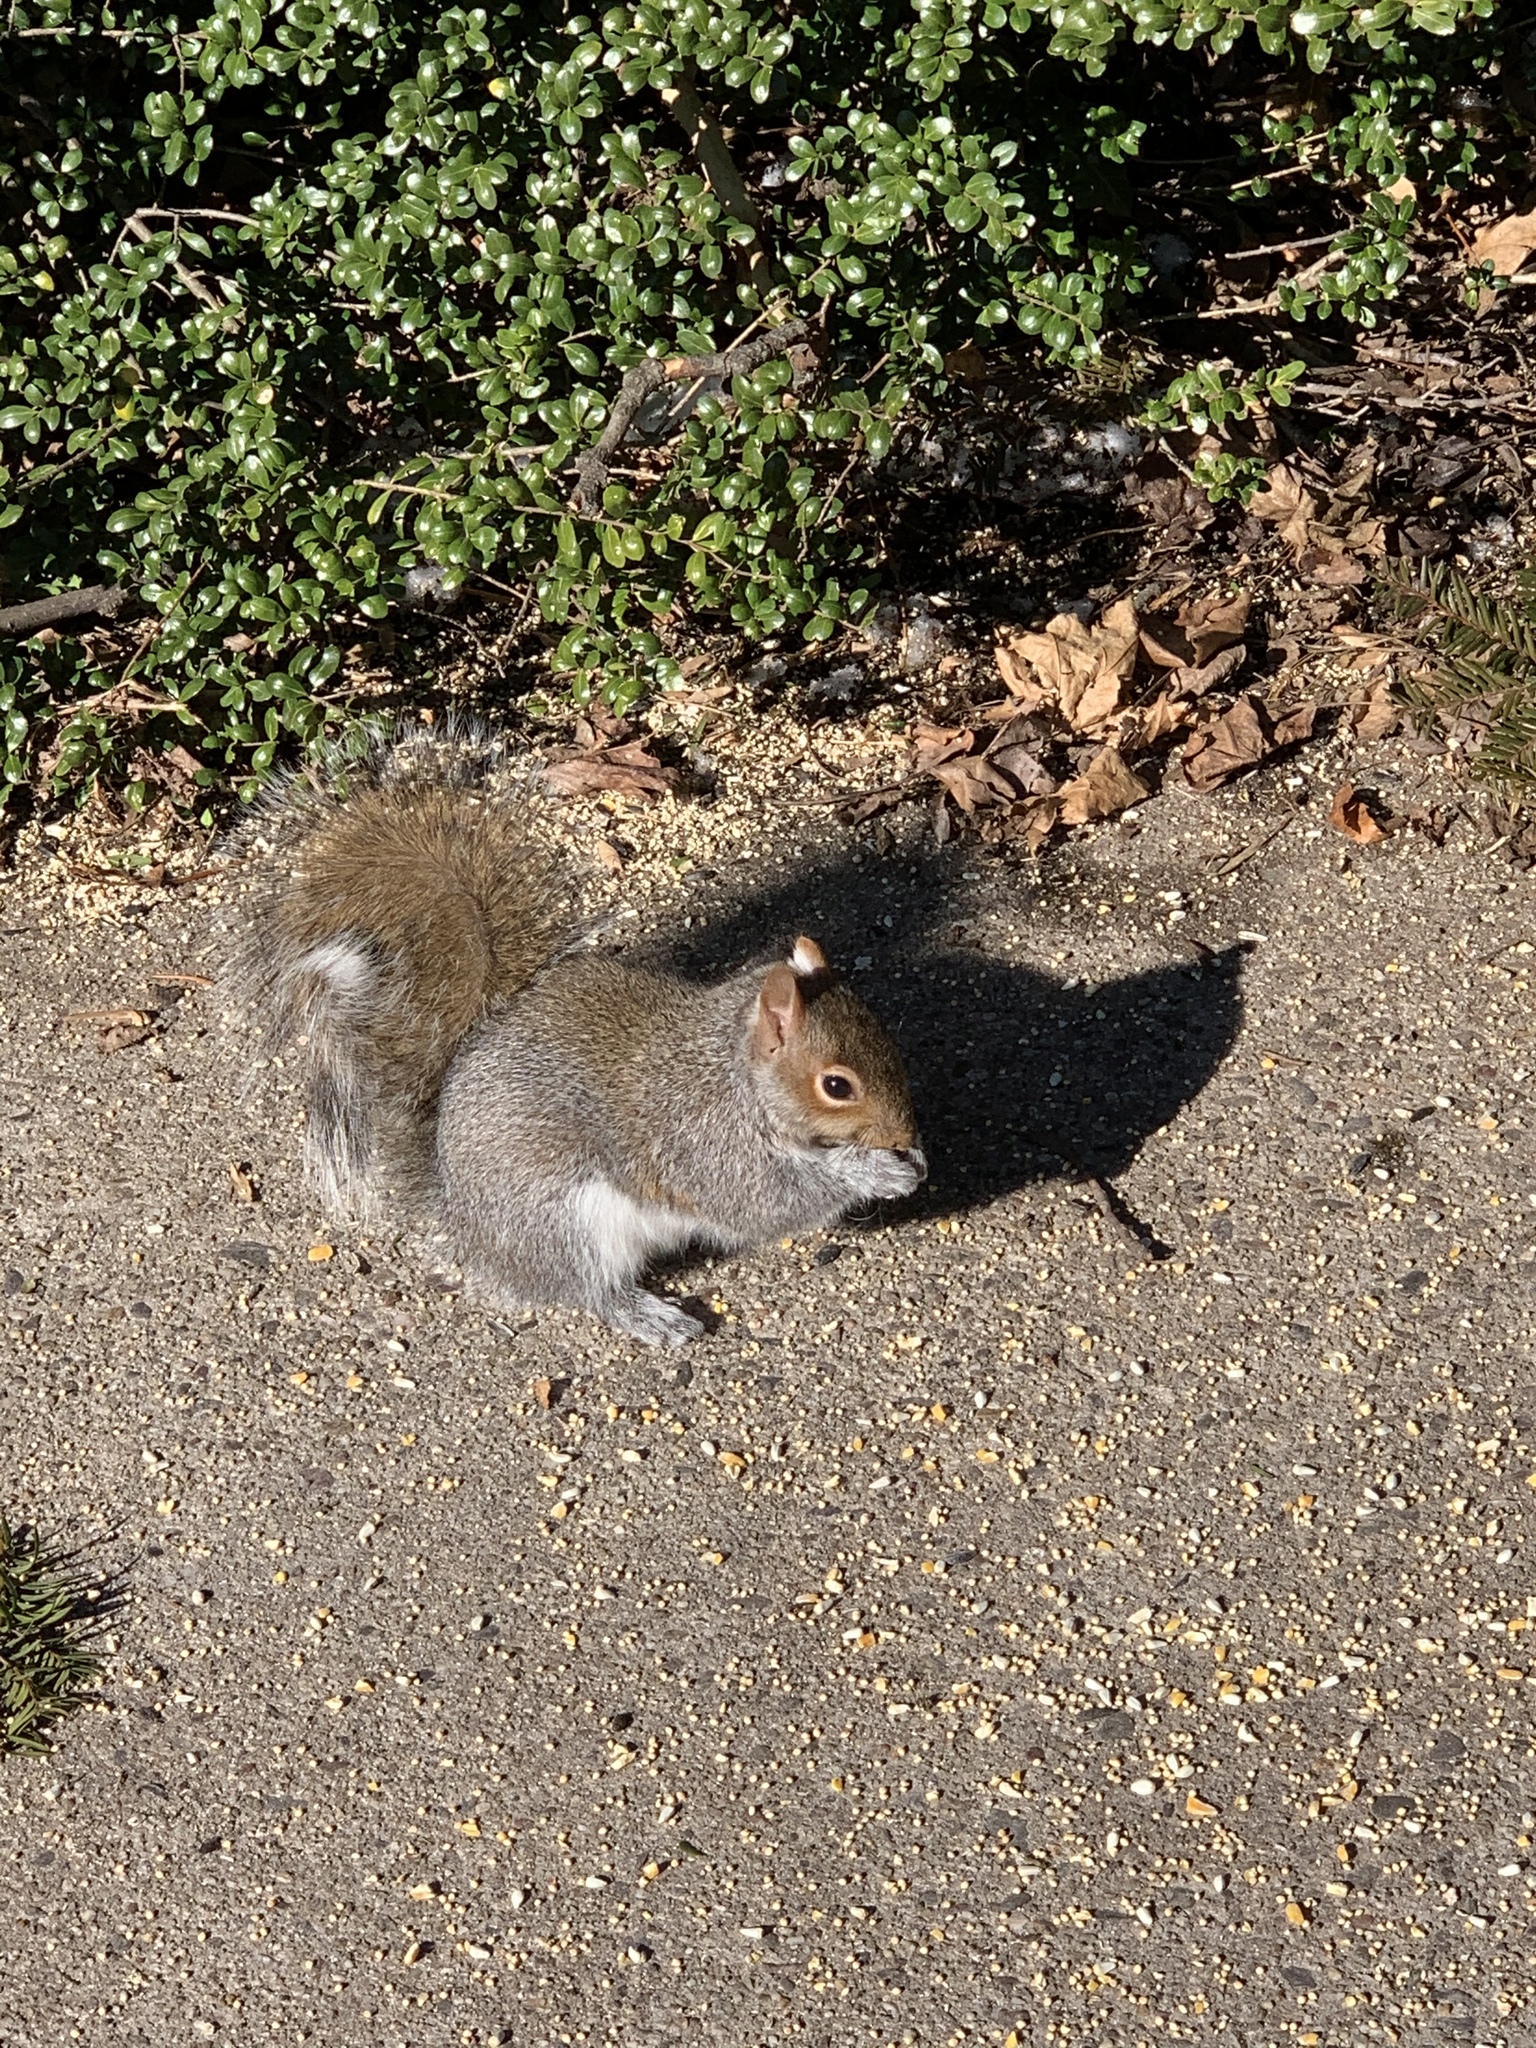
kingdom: Animalia
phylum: Chordata
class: Mammalia
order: Rodentia
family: Sciuridae
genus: Sciurus
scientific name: Sciurus carolinensis
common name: Eastern gray squirrel
